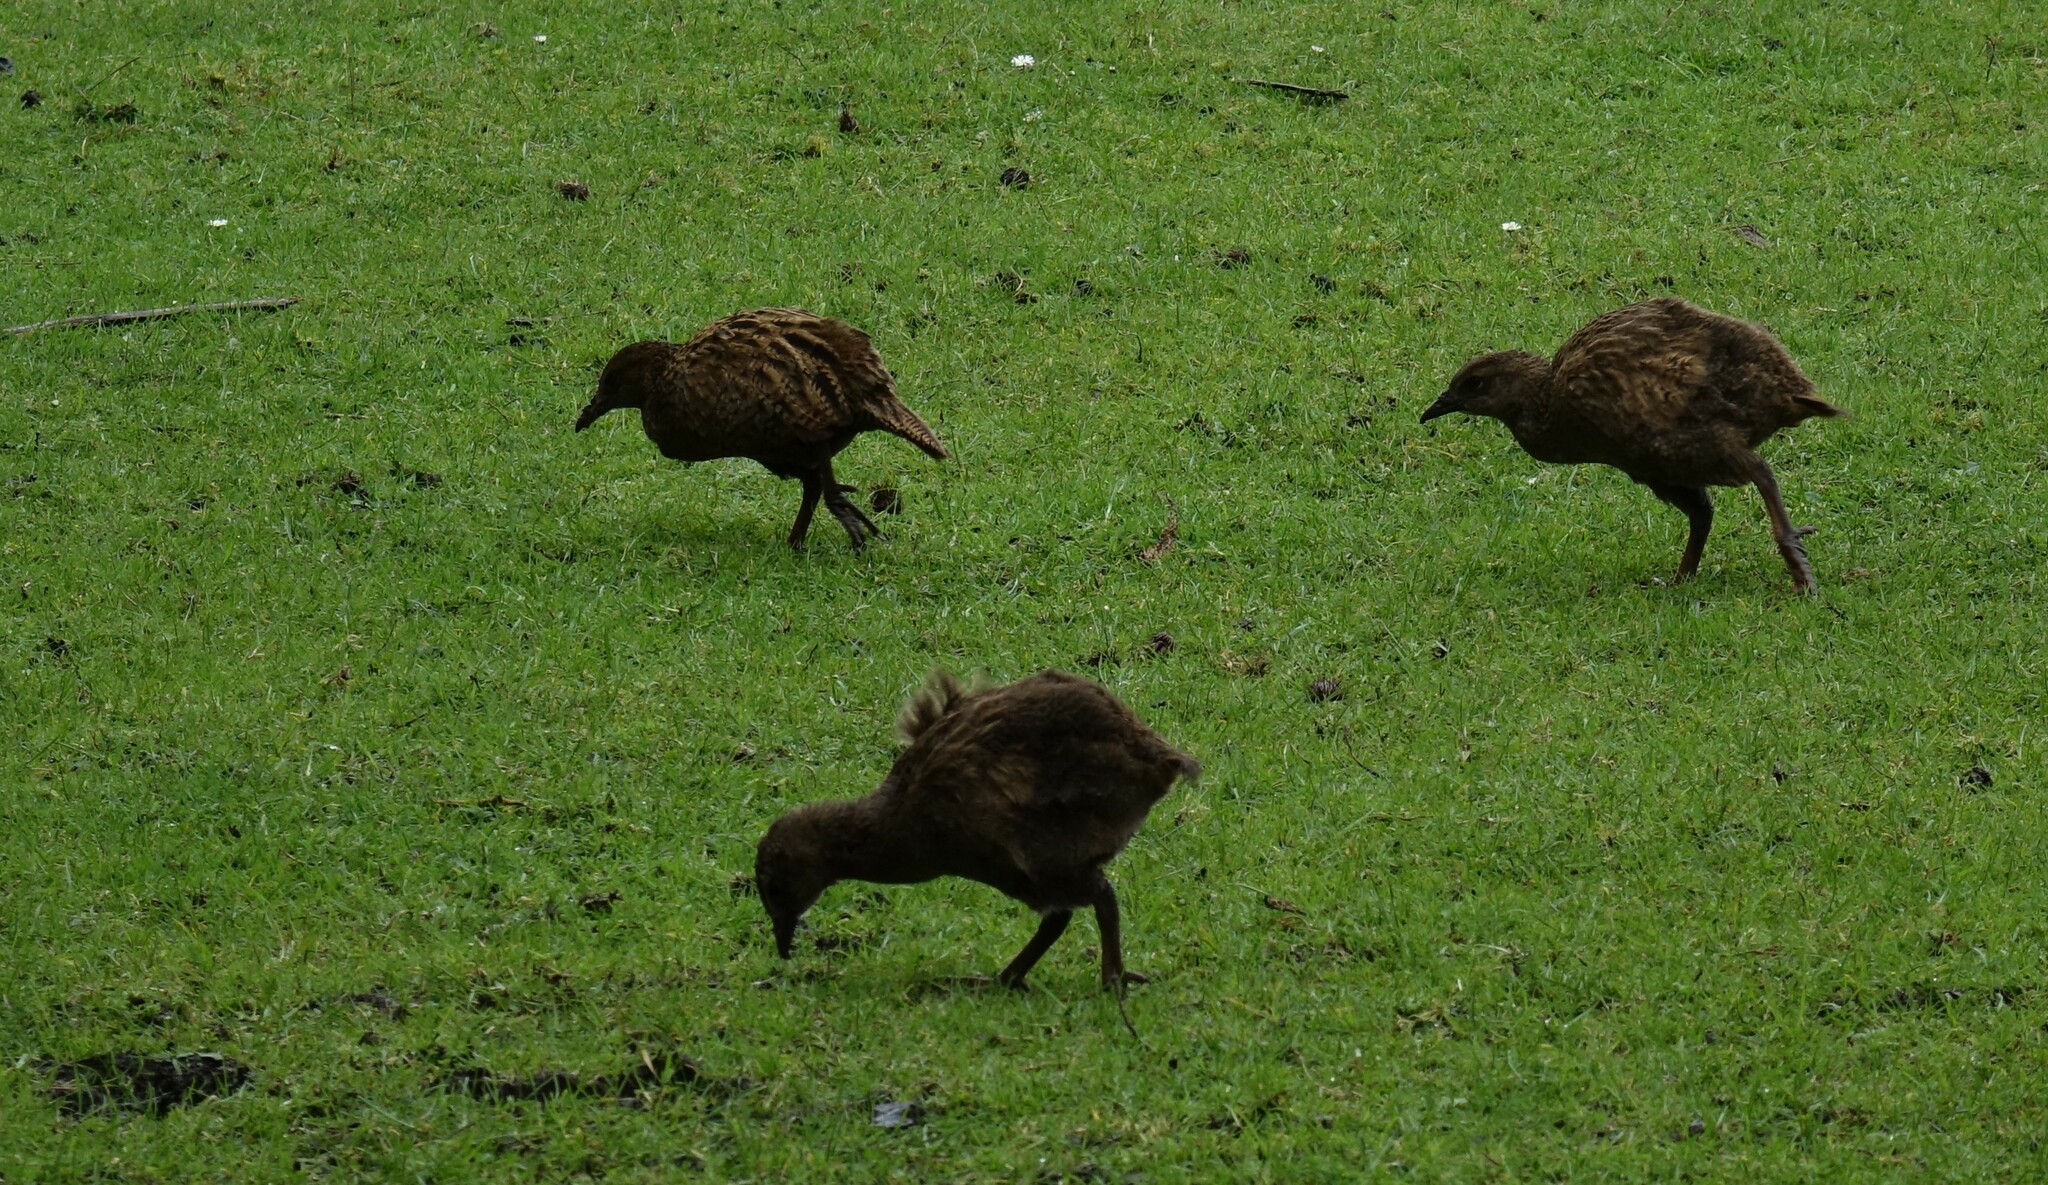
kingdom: Animalia
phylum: Chordata
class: Aves
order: Gruiformes
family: Rallidae
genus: Gallirallus
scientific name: Gallirallus australis
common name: Weka
